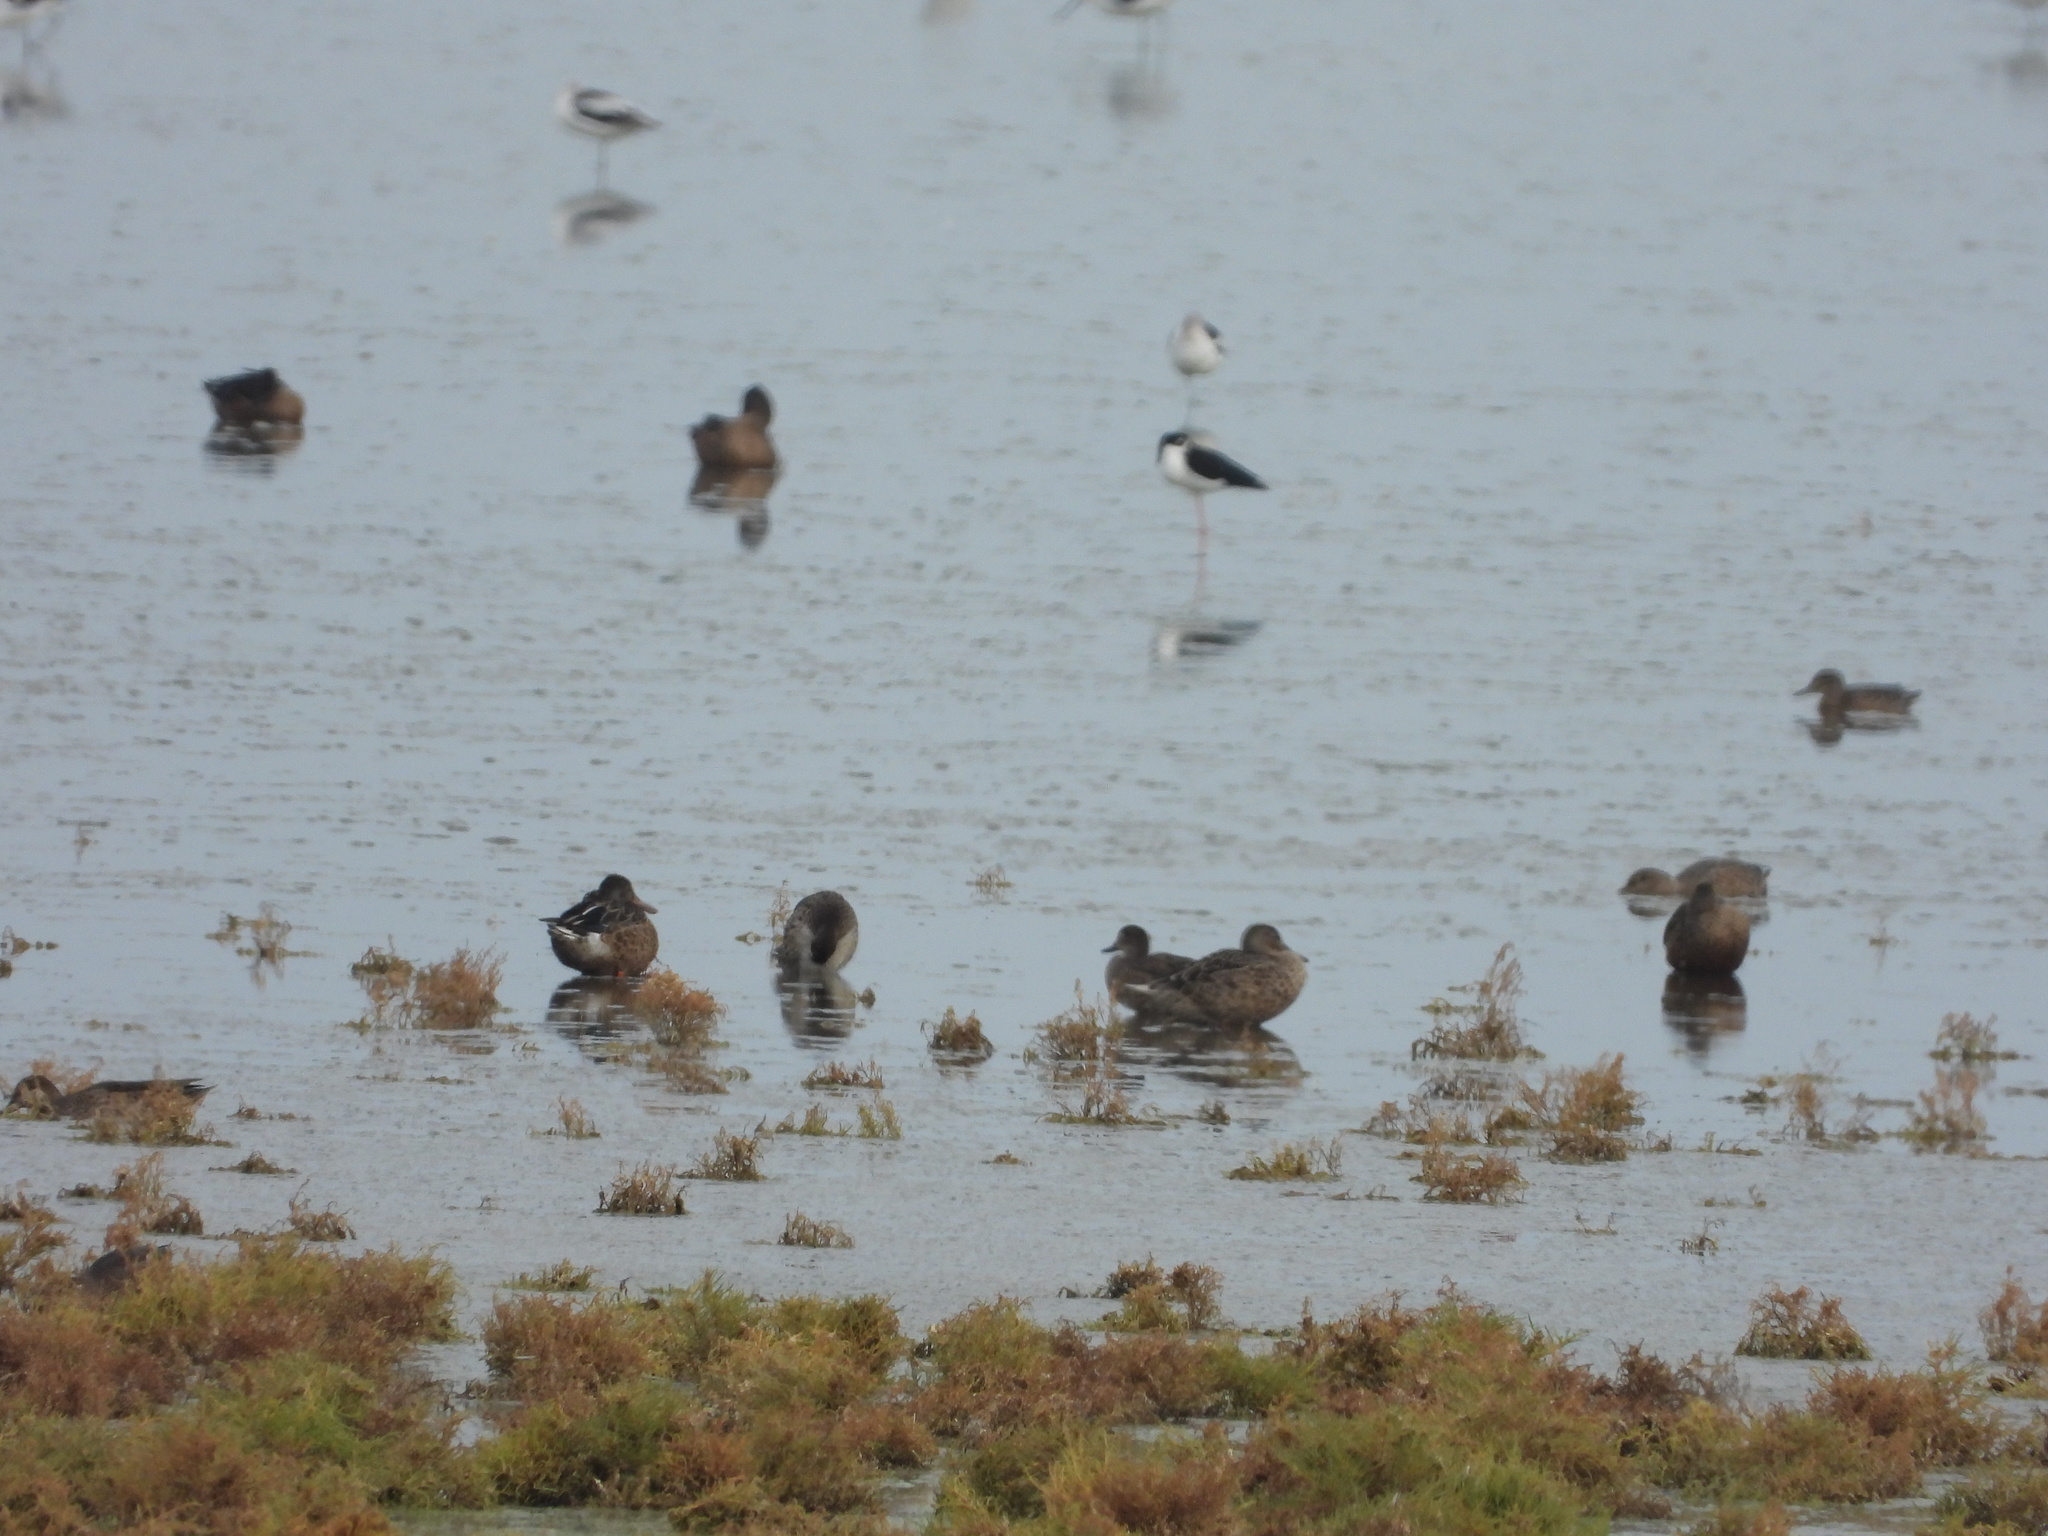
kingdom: Animalia
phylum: Chordata
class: Aves
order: Anseriformes
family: Anatidae
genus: Spatula
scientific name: Spatula clypeata
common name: Northern shoveler
